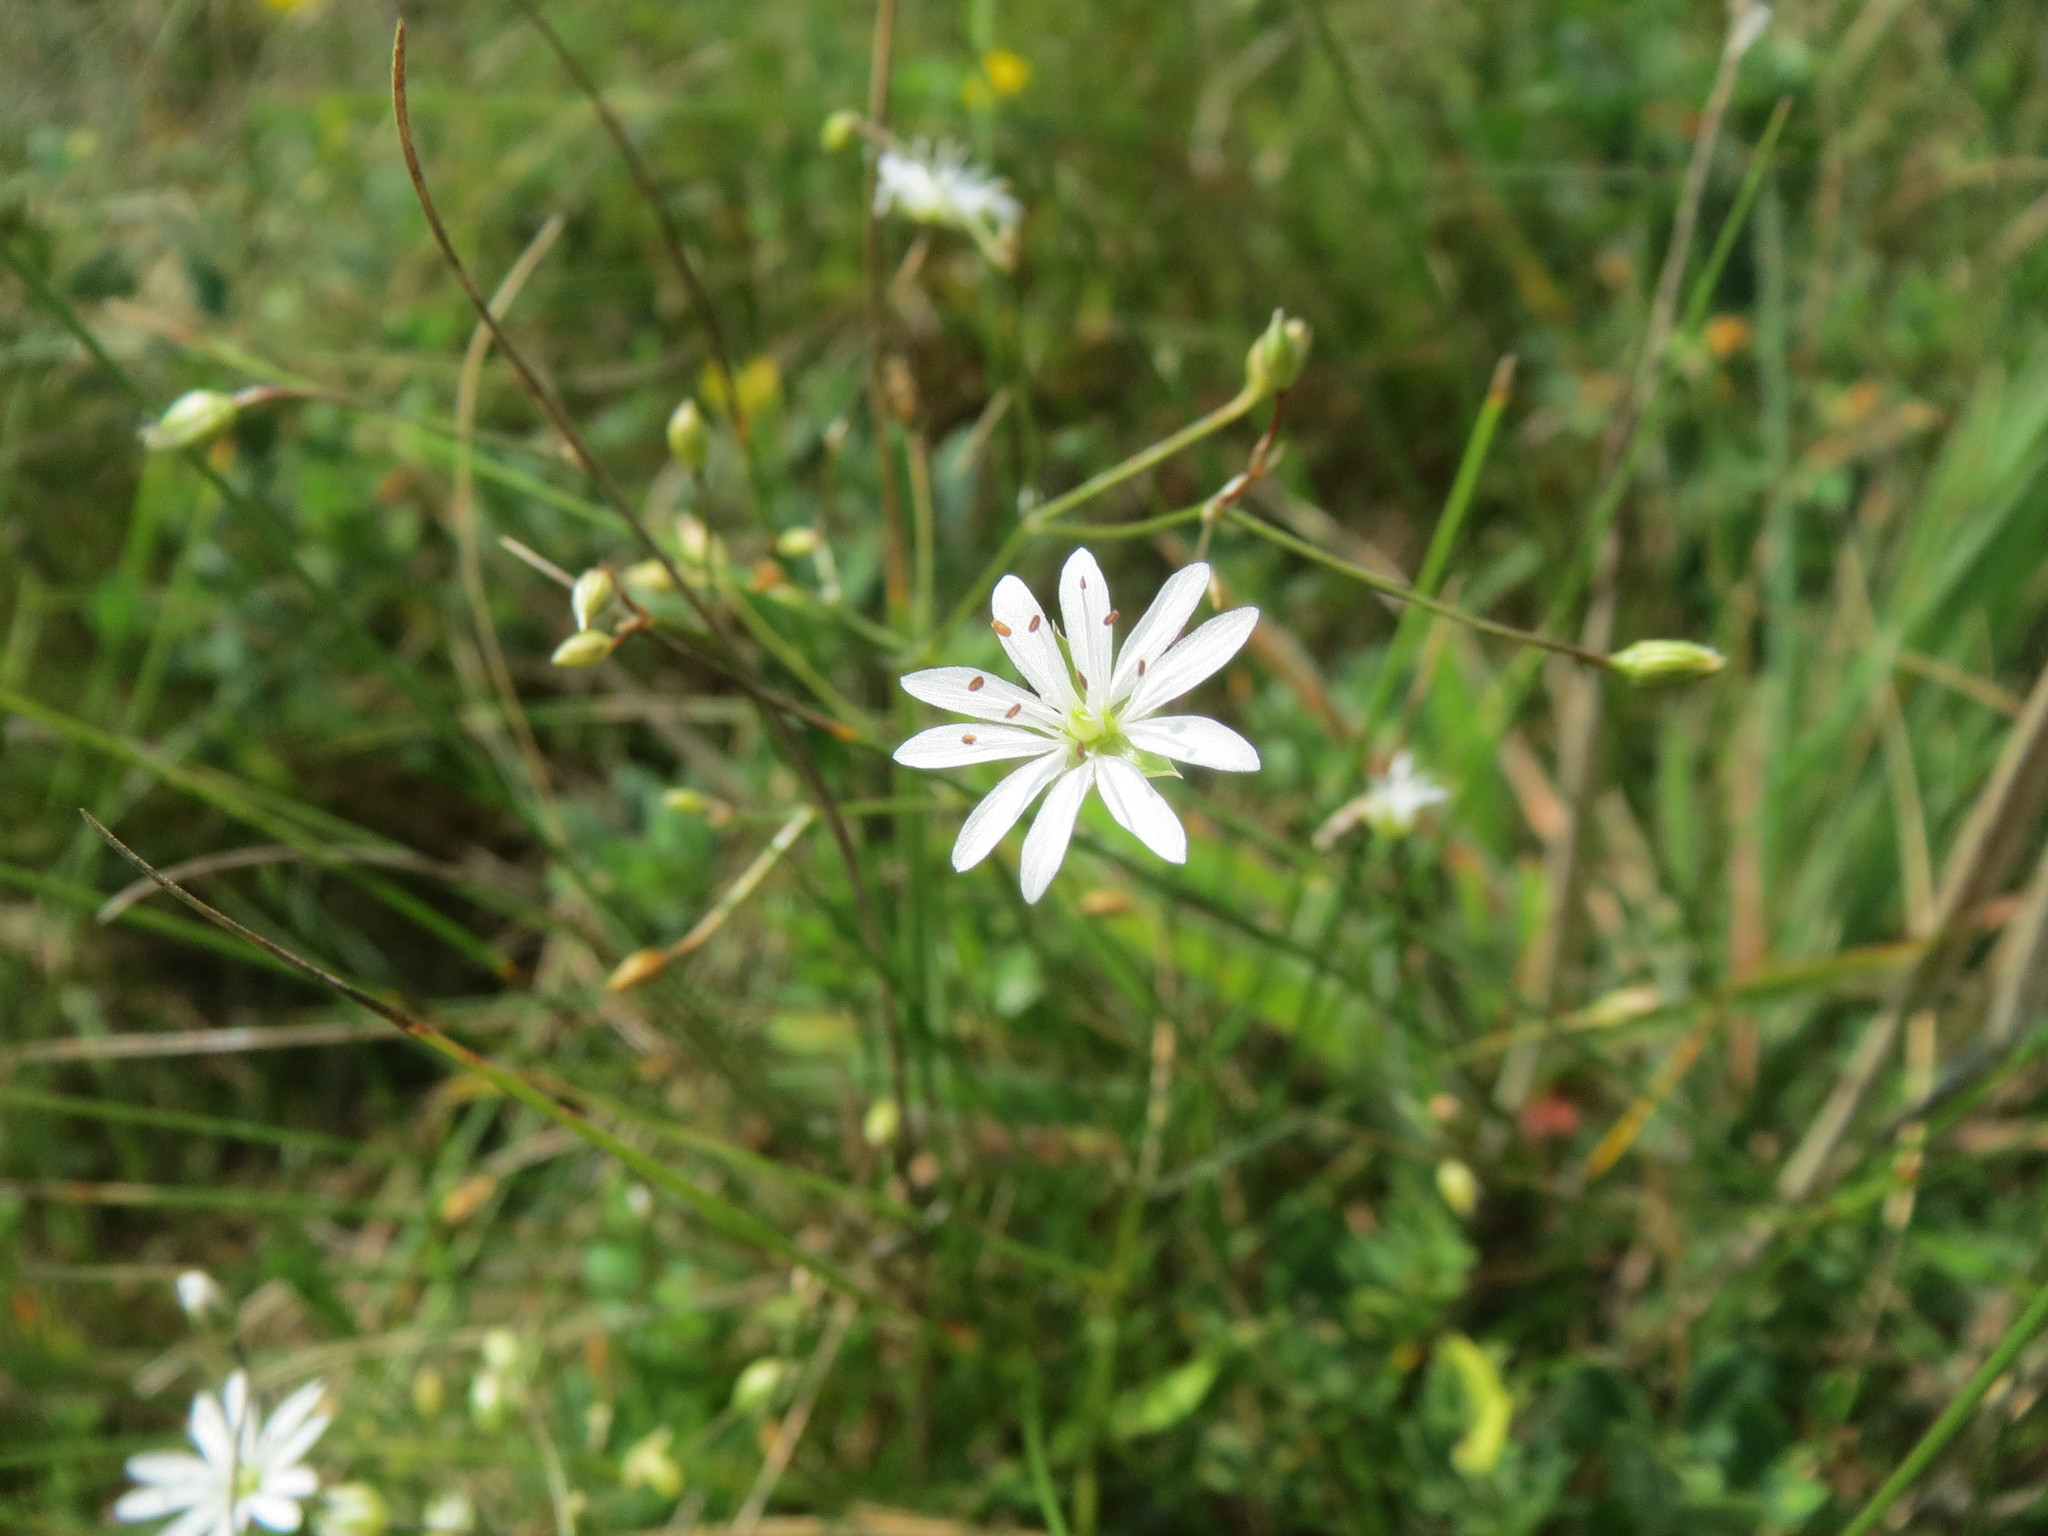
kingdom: Plantae
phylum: Tracheophyta
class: Magnoliopsida
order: Caryophyllales
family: Caryophyllaceae
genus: Stellaria
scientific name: Stellaria graminea
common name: Grass-like starwort
